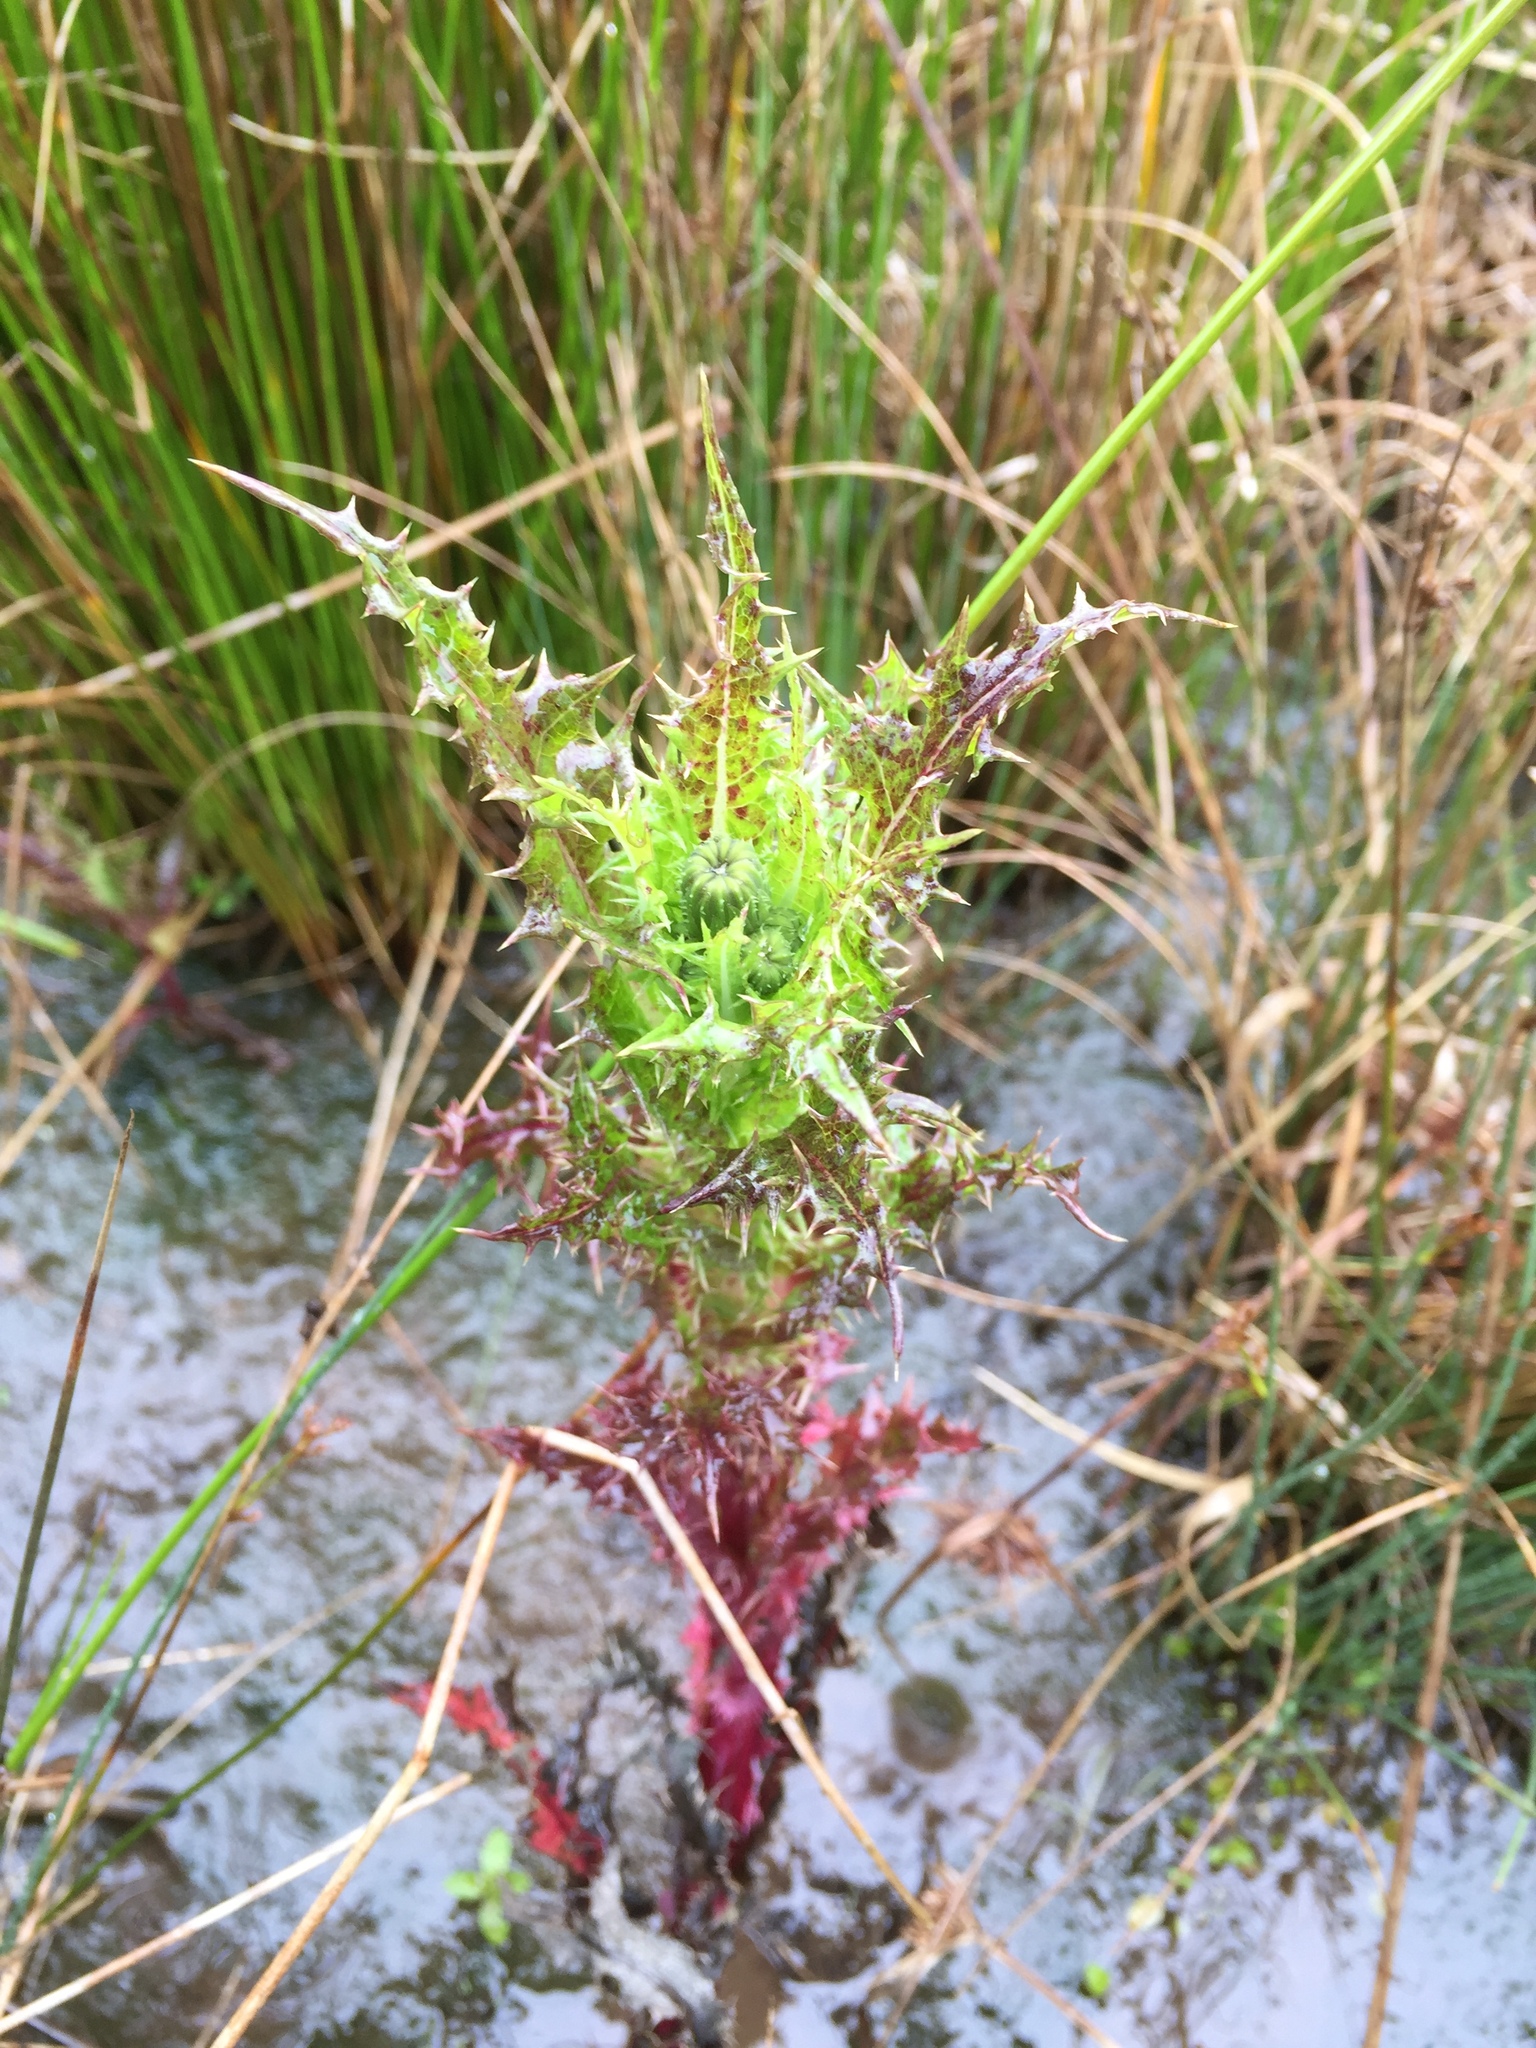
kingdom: Plantae
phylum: Tracheophyta
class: Magnoliopsida
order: Asterales
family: Asteraceae
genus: Sonchus
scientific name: Sonchus asper
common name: Prickly sow-thistle
